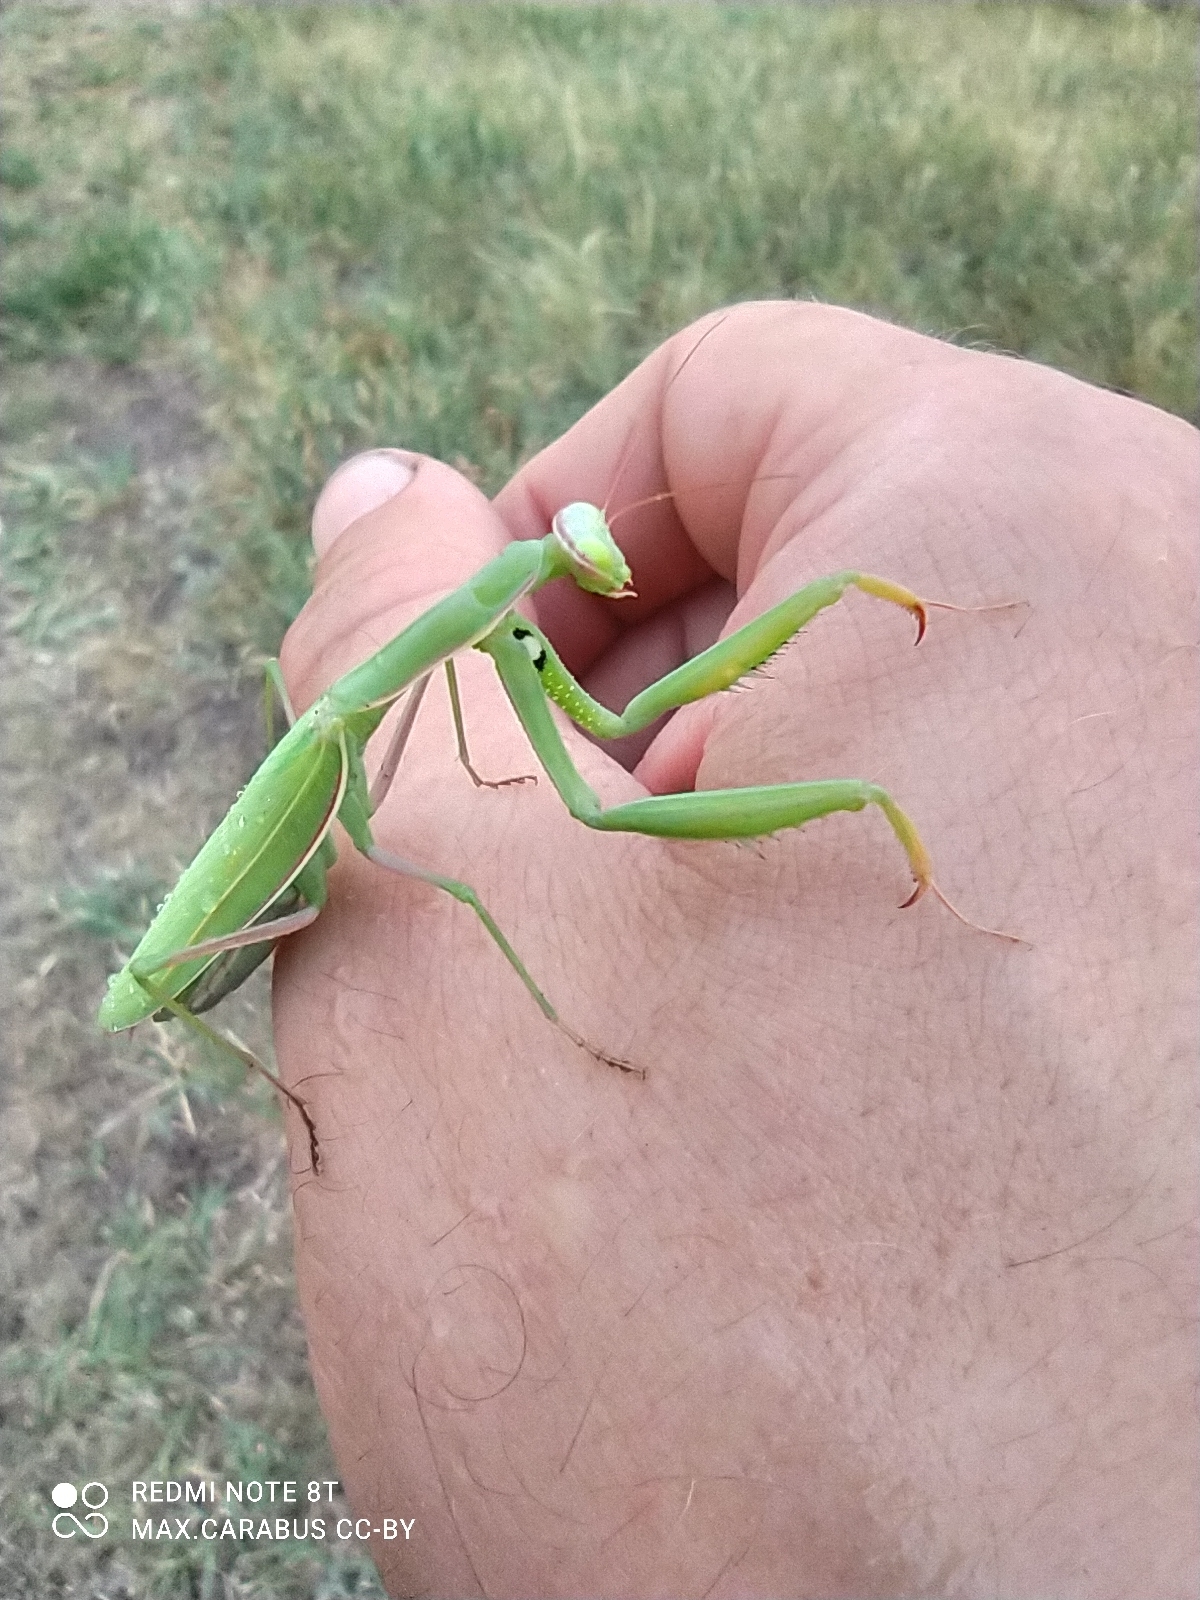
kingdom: Animalia
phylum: Arthropoda
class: Insecta
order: Mantodea
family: Mantidae
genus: Mantis
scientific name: Mantis religiosa
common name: Praying mantis
